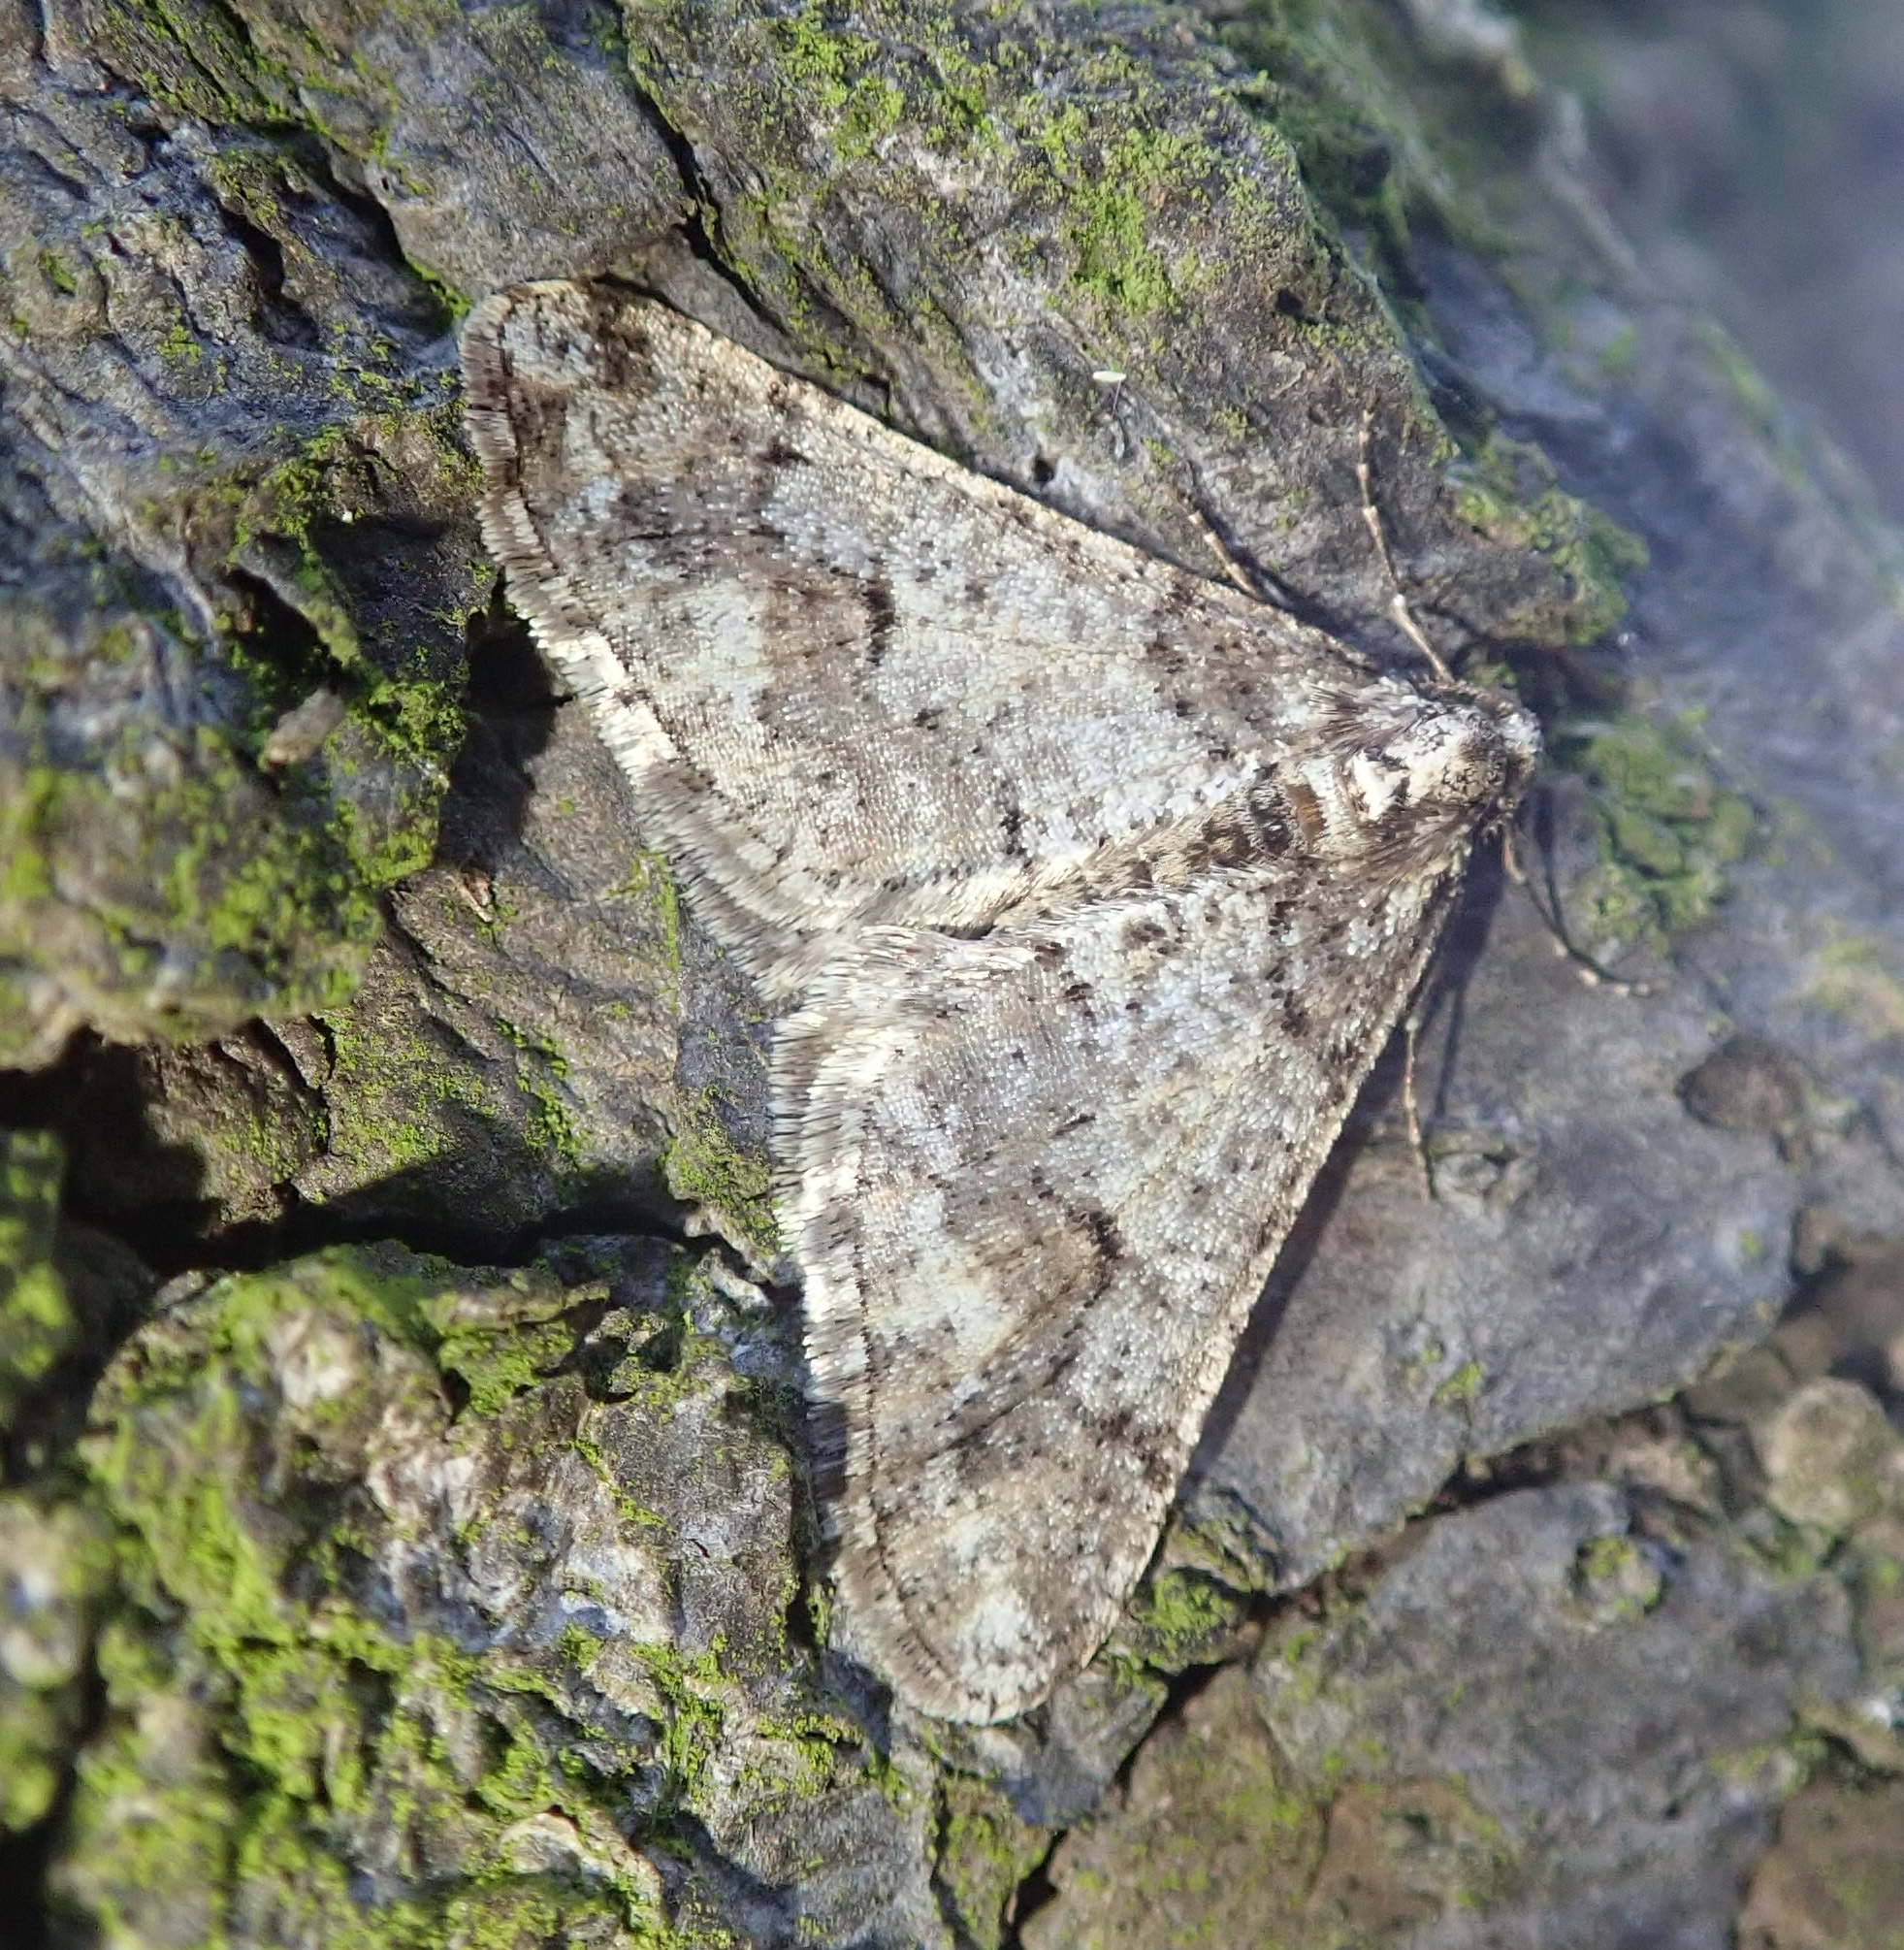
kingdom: Animalia
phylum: Arthropoda
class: Insecta
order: Lepidoptera
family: Geometridae
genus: Agriopis
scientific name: Agriopis leucophaearia
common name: Spring usher
